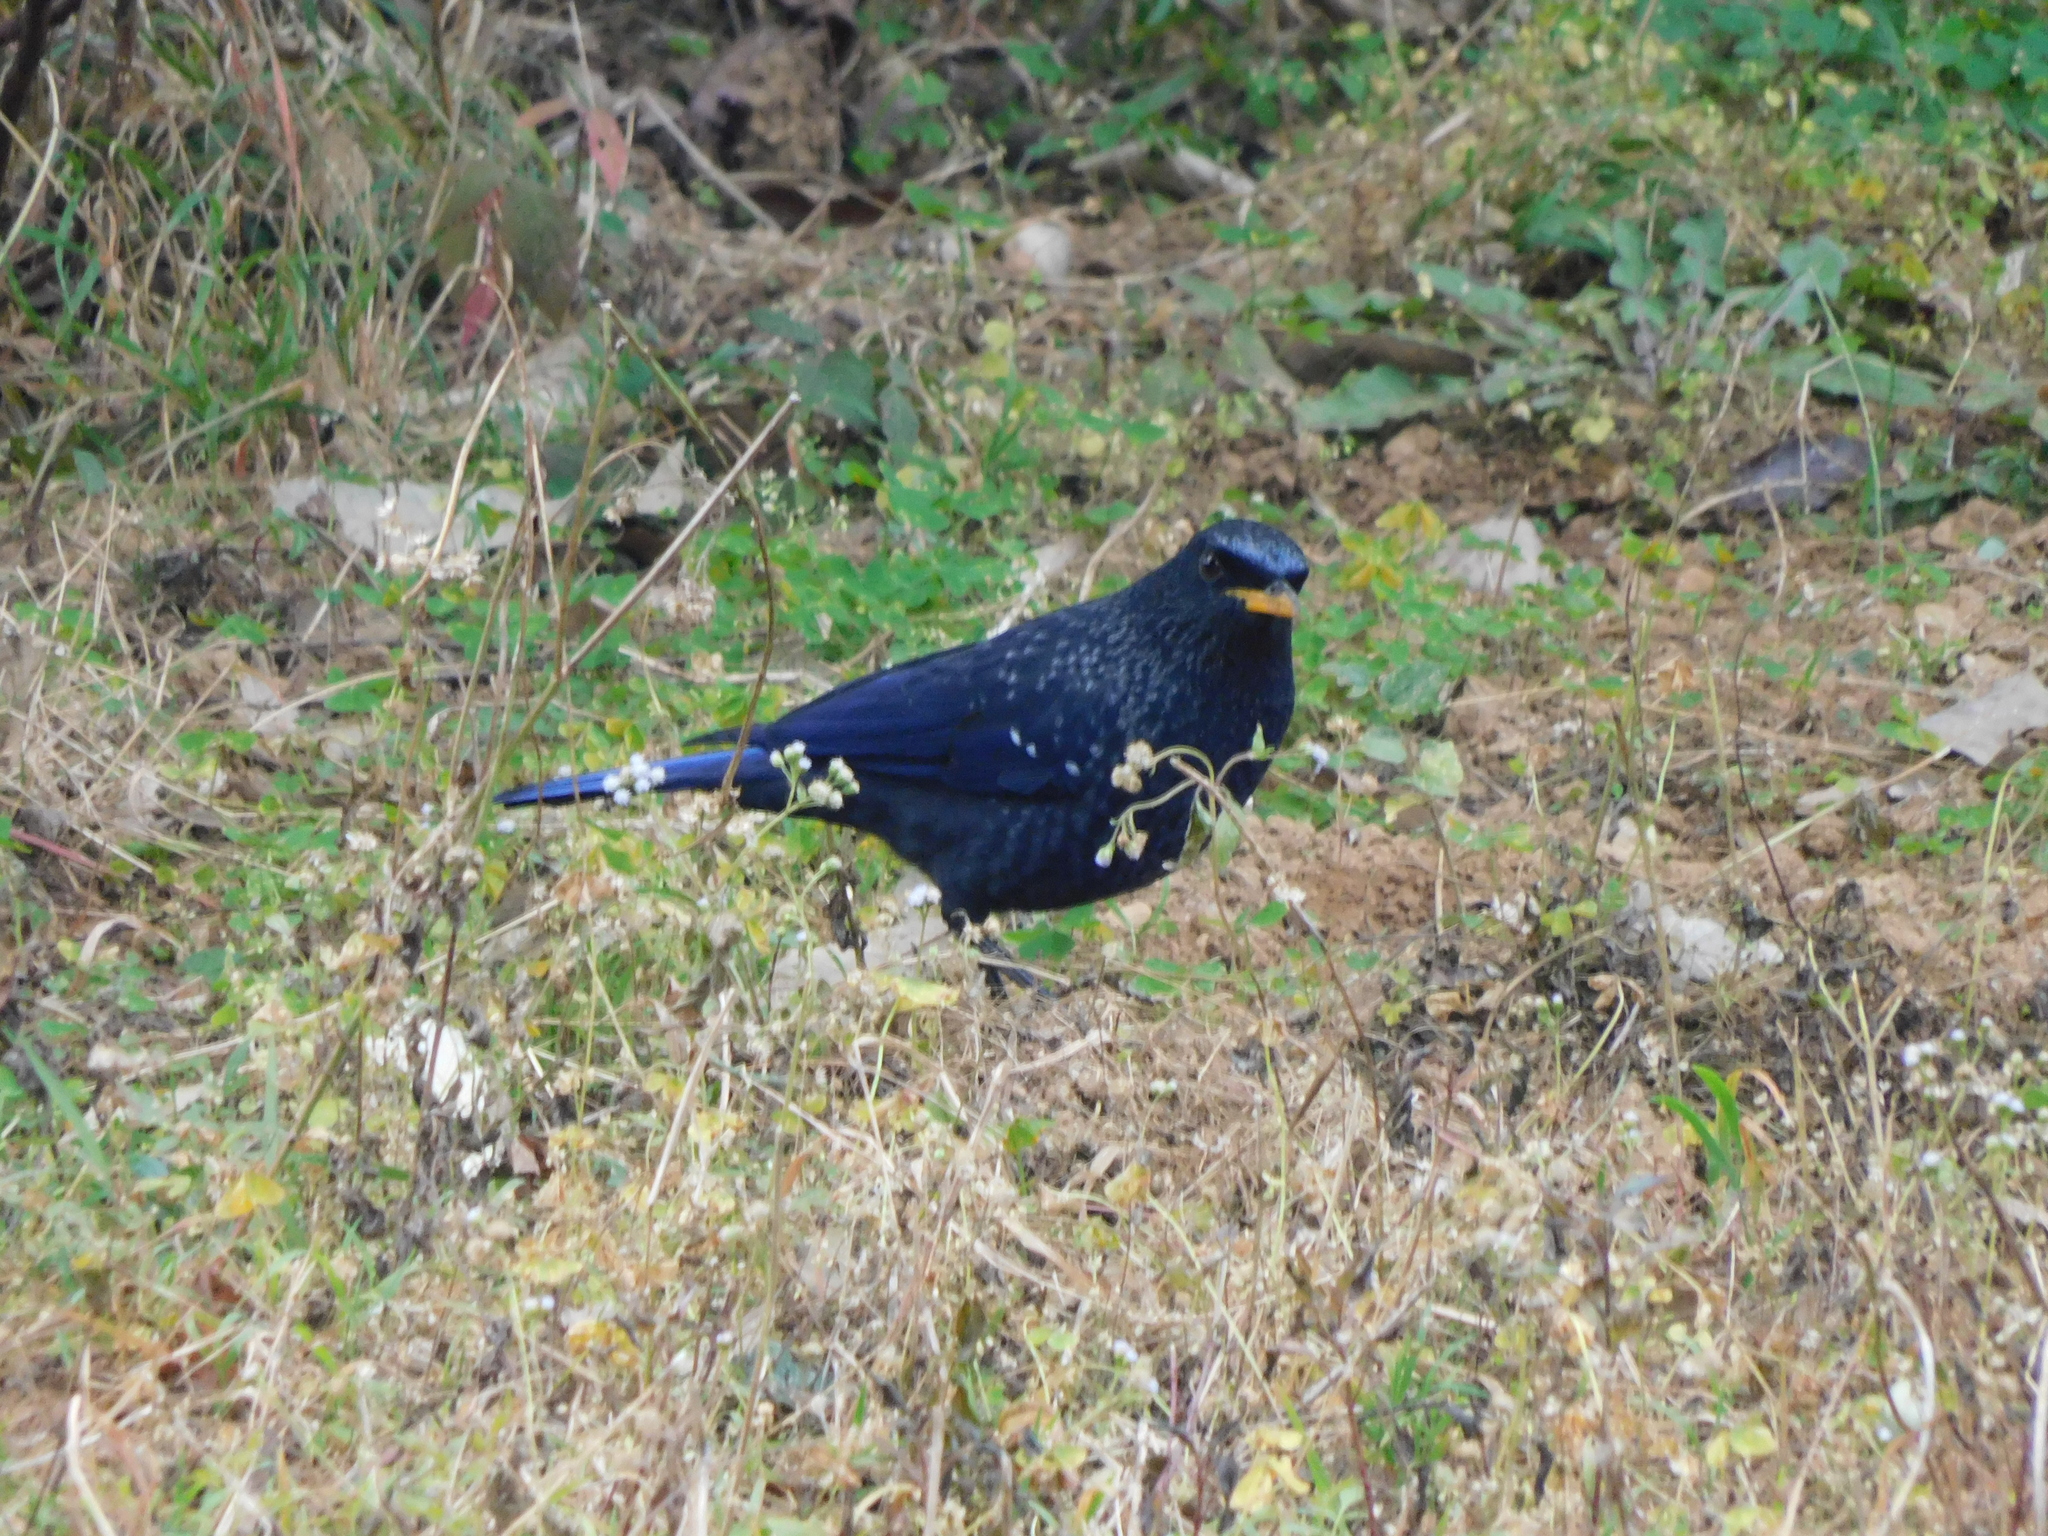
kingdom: Animalia
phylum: Chordata
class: Aves
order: Passeriformes
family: Muscicapidae
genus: Myophonus
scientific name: Myophonus caeruleus
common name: Blue whistling-thrush
